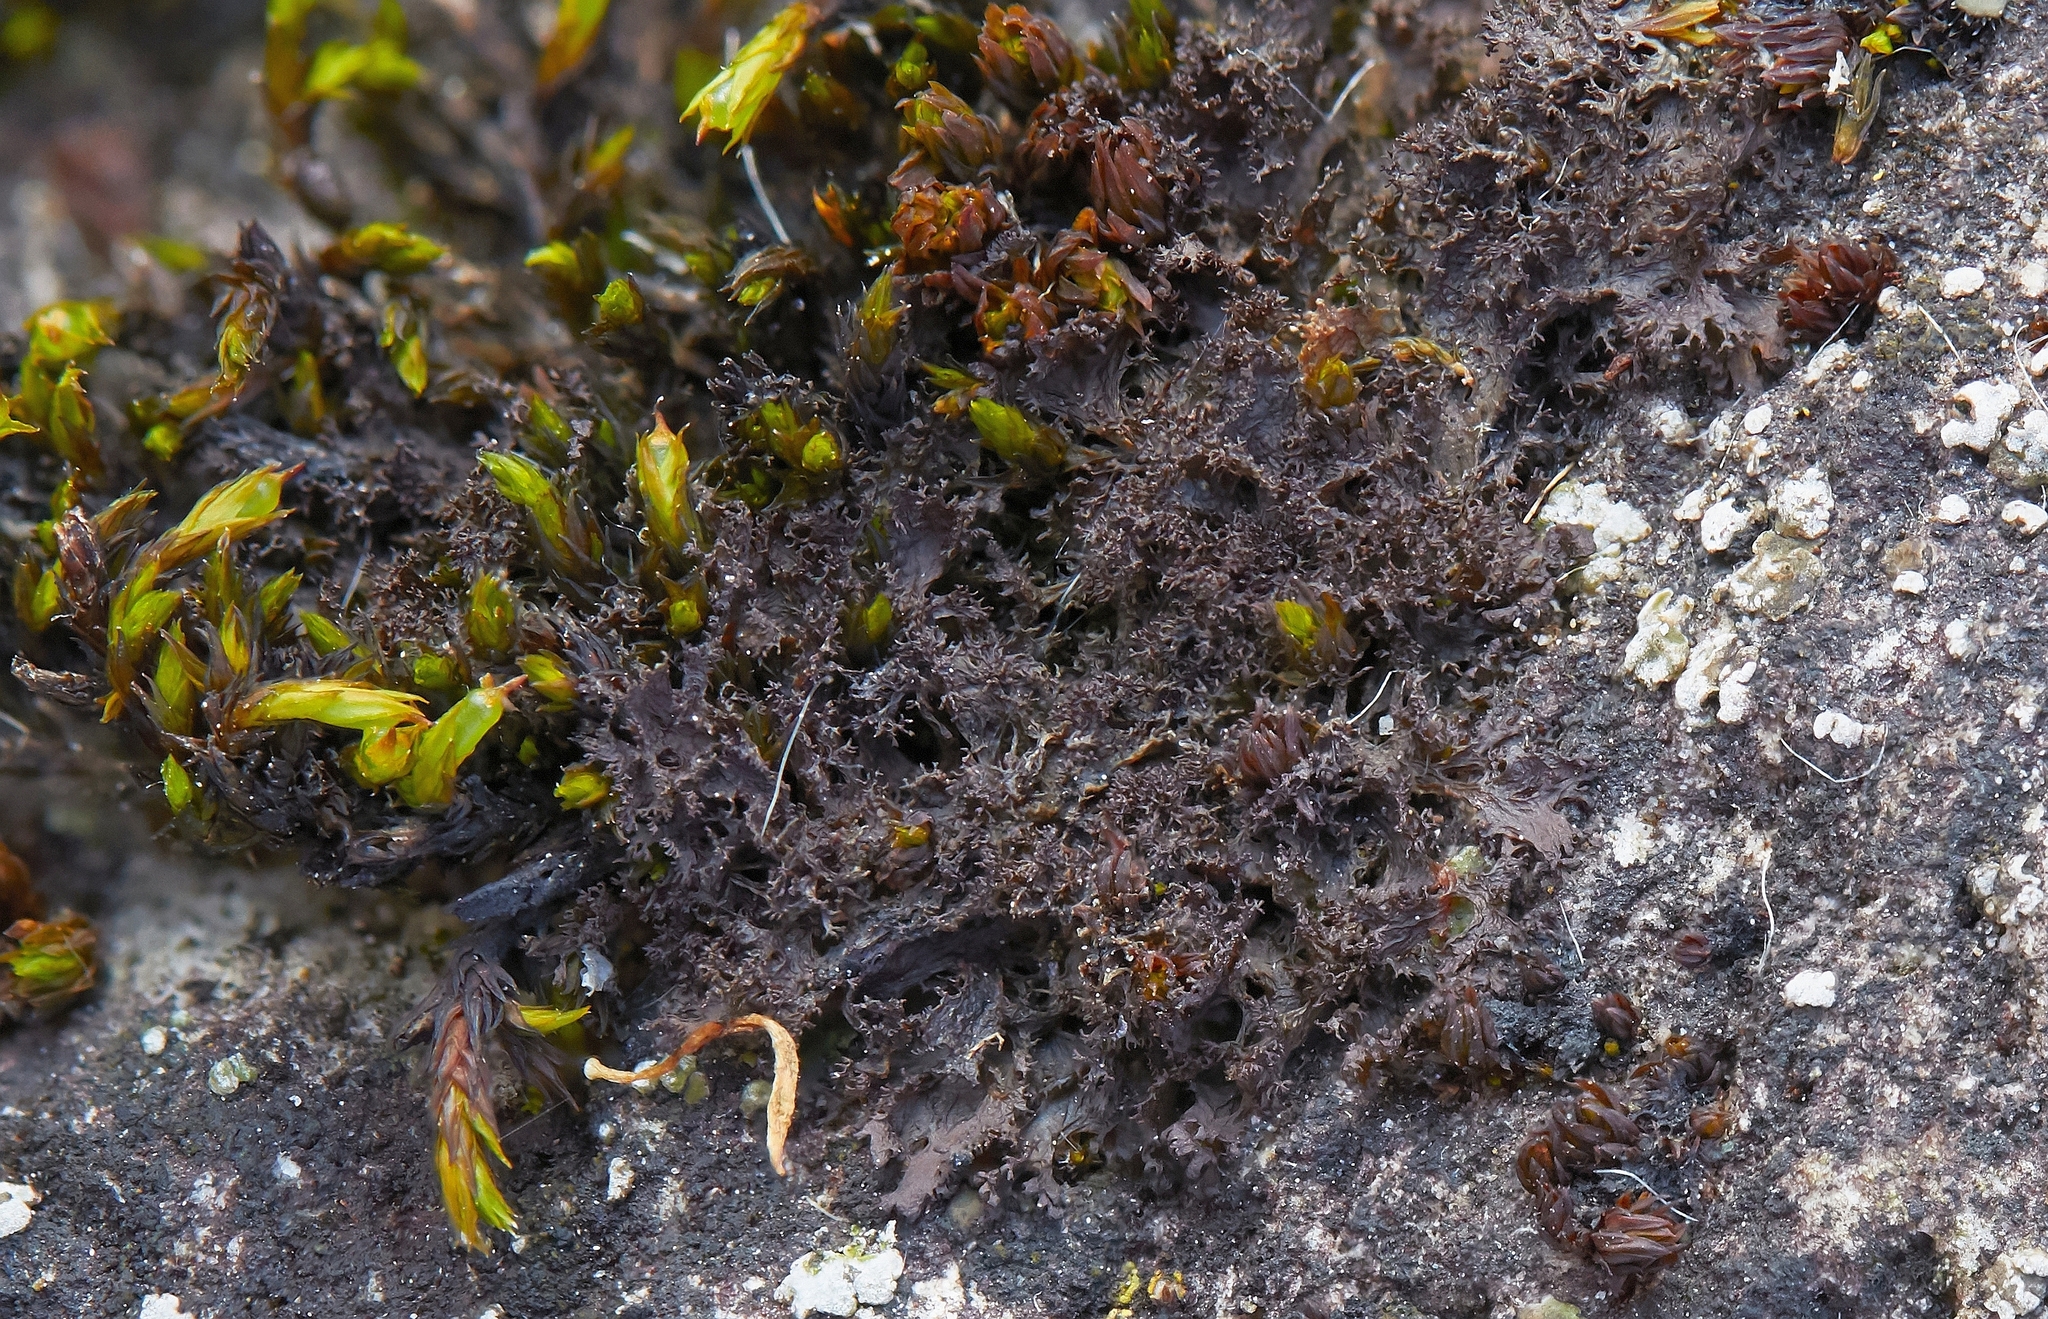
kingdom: Fungi
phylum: Ascomycota
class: Lecanoromycetes
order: Peltigerales
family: Collemataceae
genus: Scytinium
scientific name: Scytinium lichenoides
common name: Tattered jellyskin lichen
